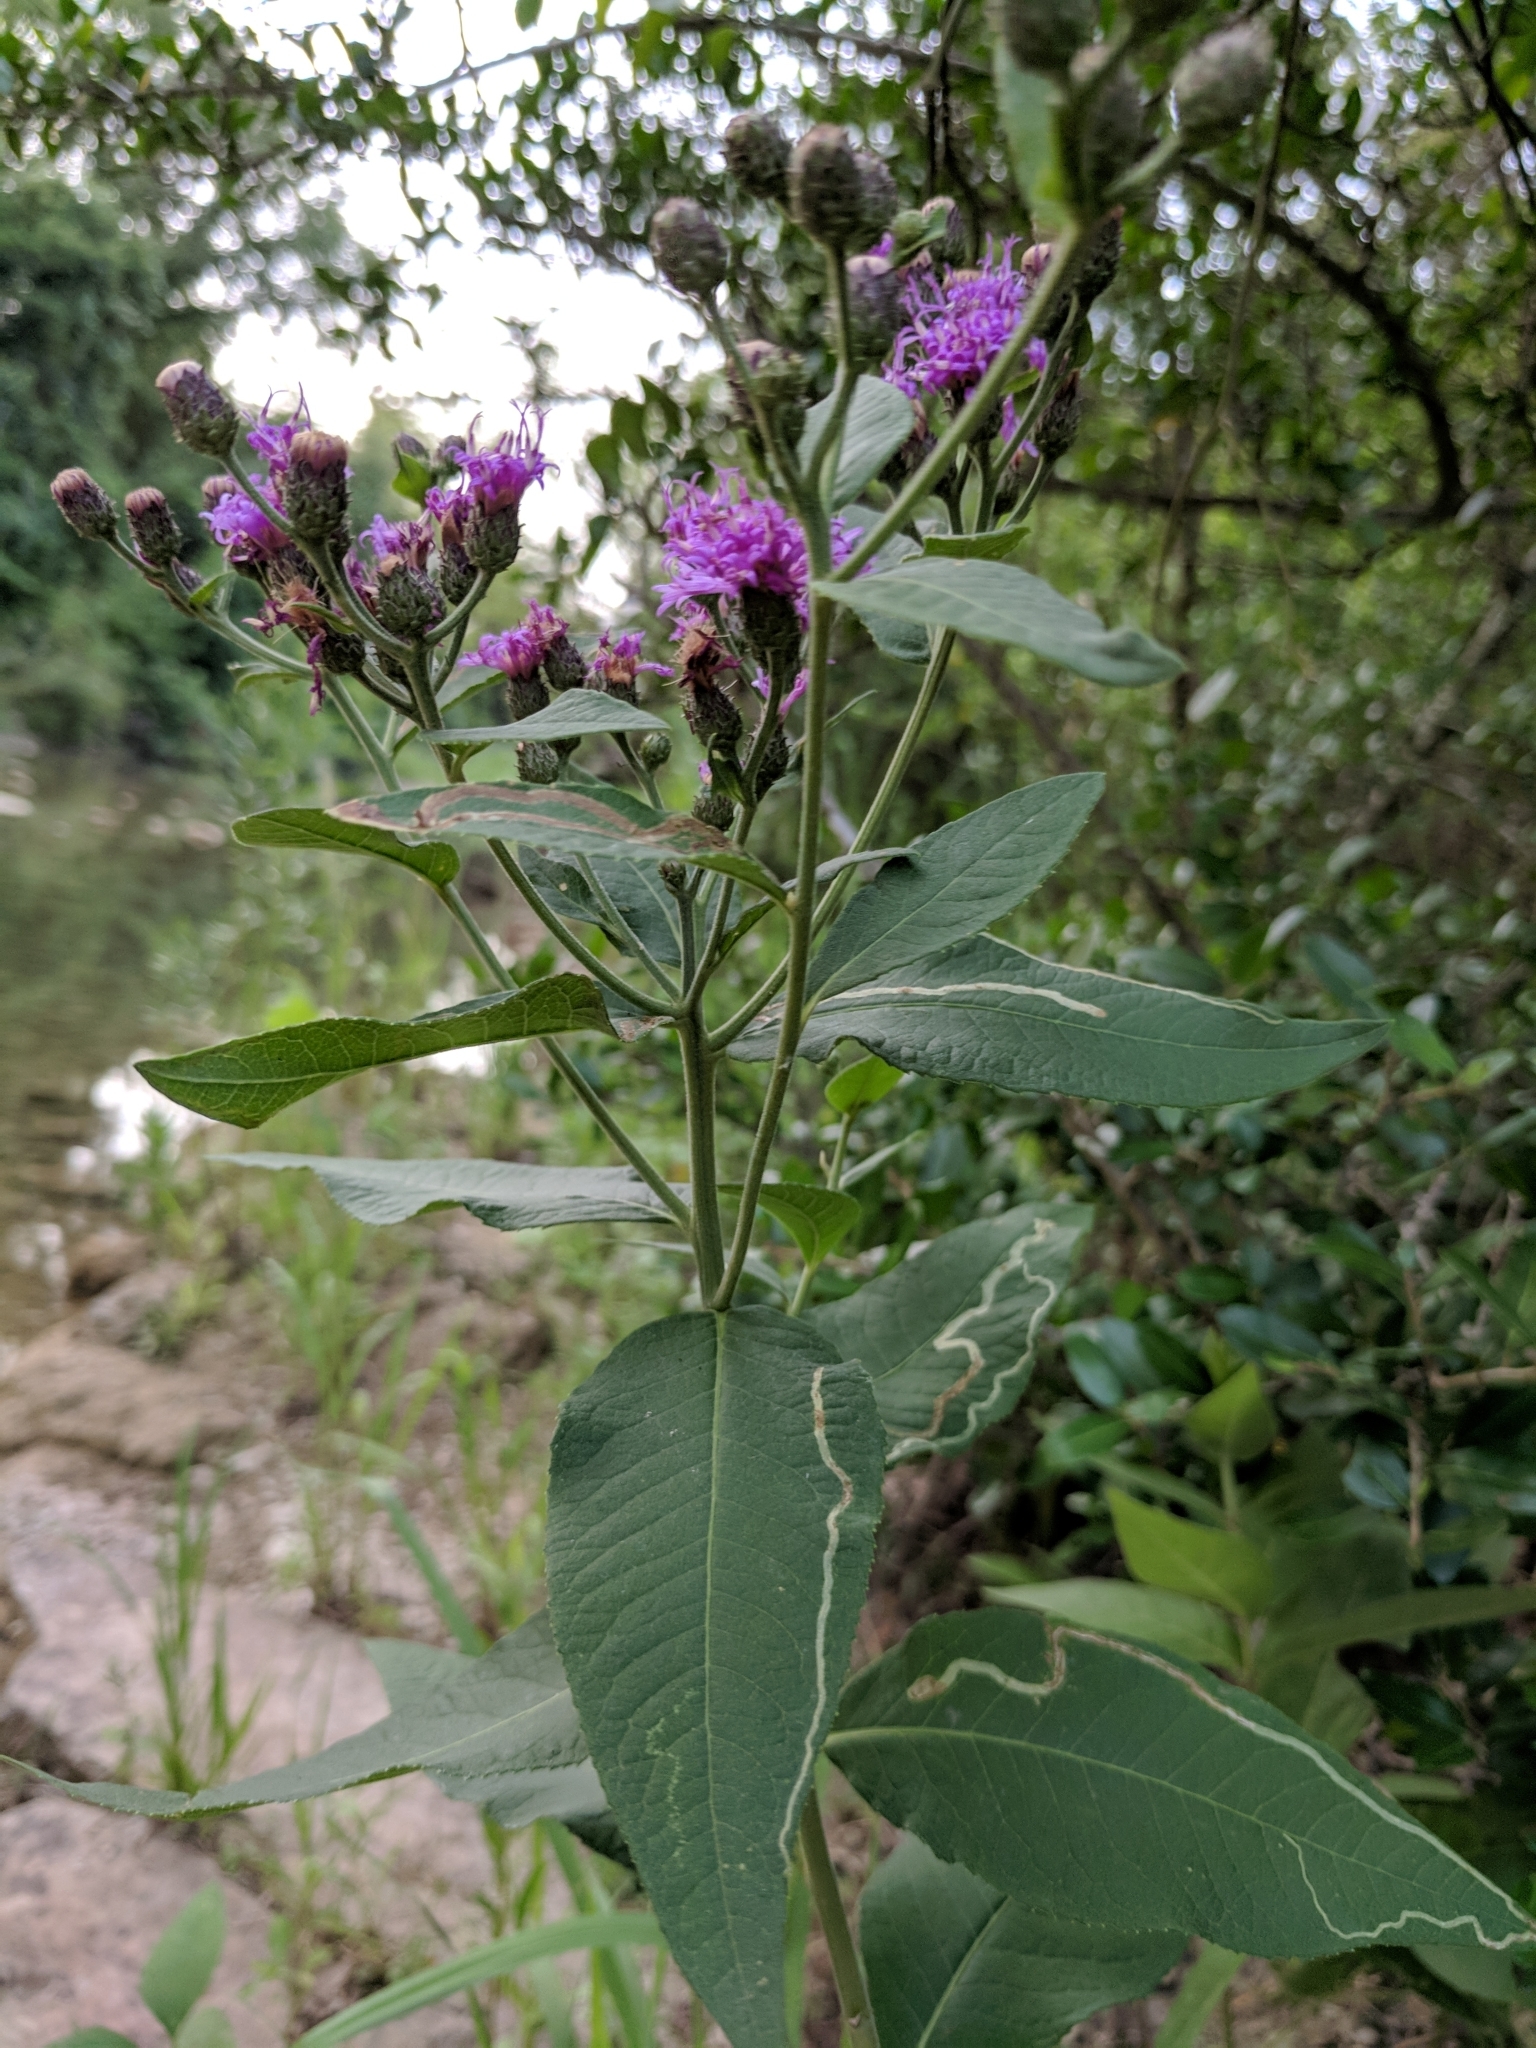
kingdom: Plantae
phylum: Tracheophyta
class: Magnoliopsida
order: Asterales
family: Asteraceae
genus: Vernonia
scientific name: Vernonia baldwinii
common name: Western ironweed
